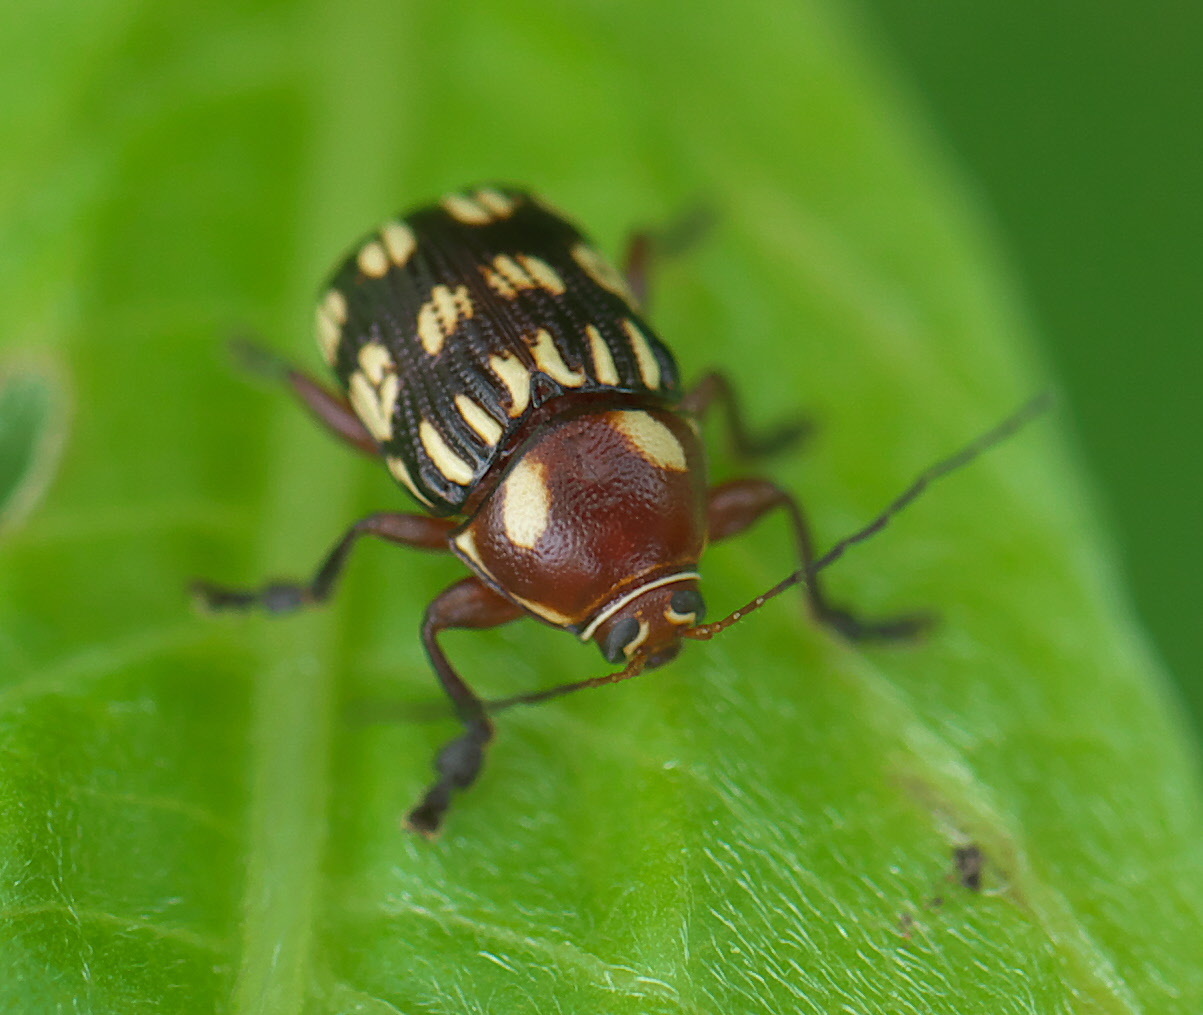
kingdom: Animalia
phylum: Arthropoda
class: Insecta
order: Coleoptera
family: Chrysomelidae
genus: Bassareus
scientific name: Bassareus brunnipes
